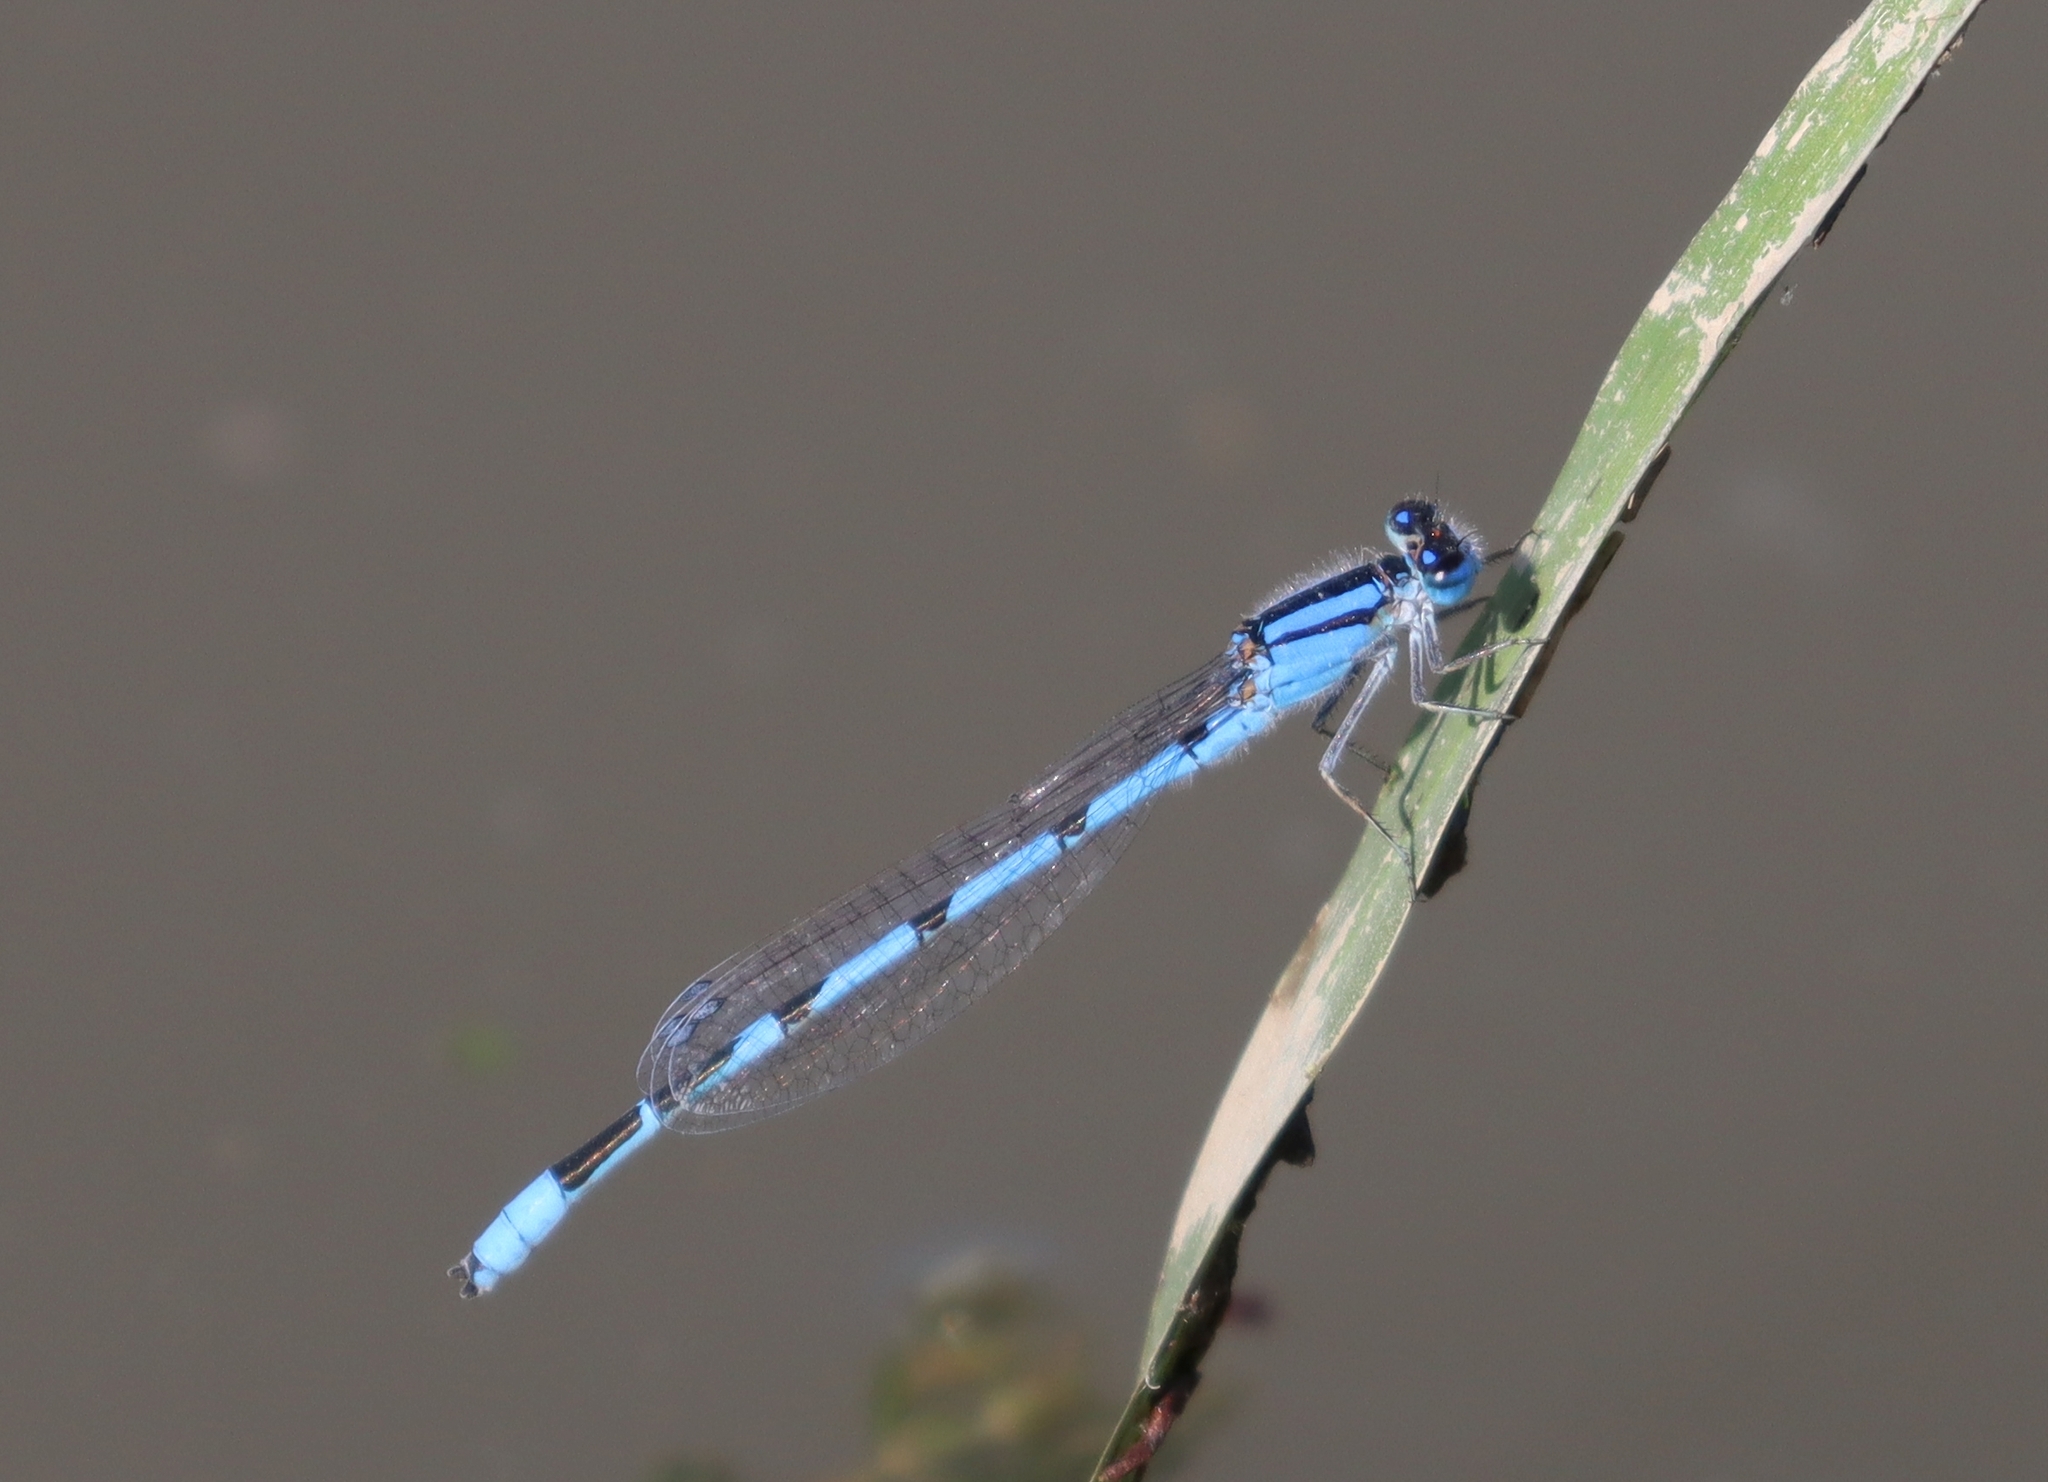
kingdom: Animalia
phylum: Arthropoda
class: Insecta
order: Odonata
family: Coenagrionidae
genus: Enallagma
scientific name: Enallagma civile
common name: Damselfly
